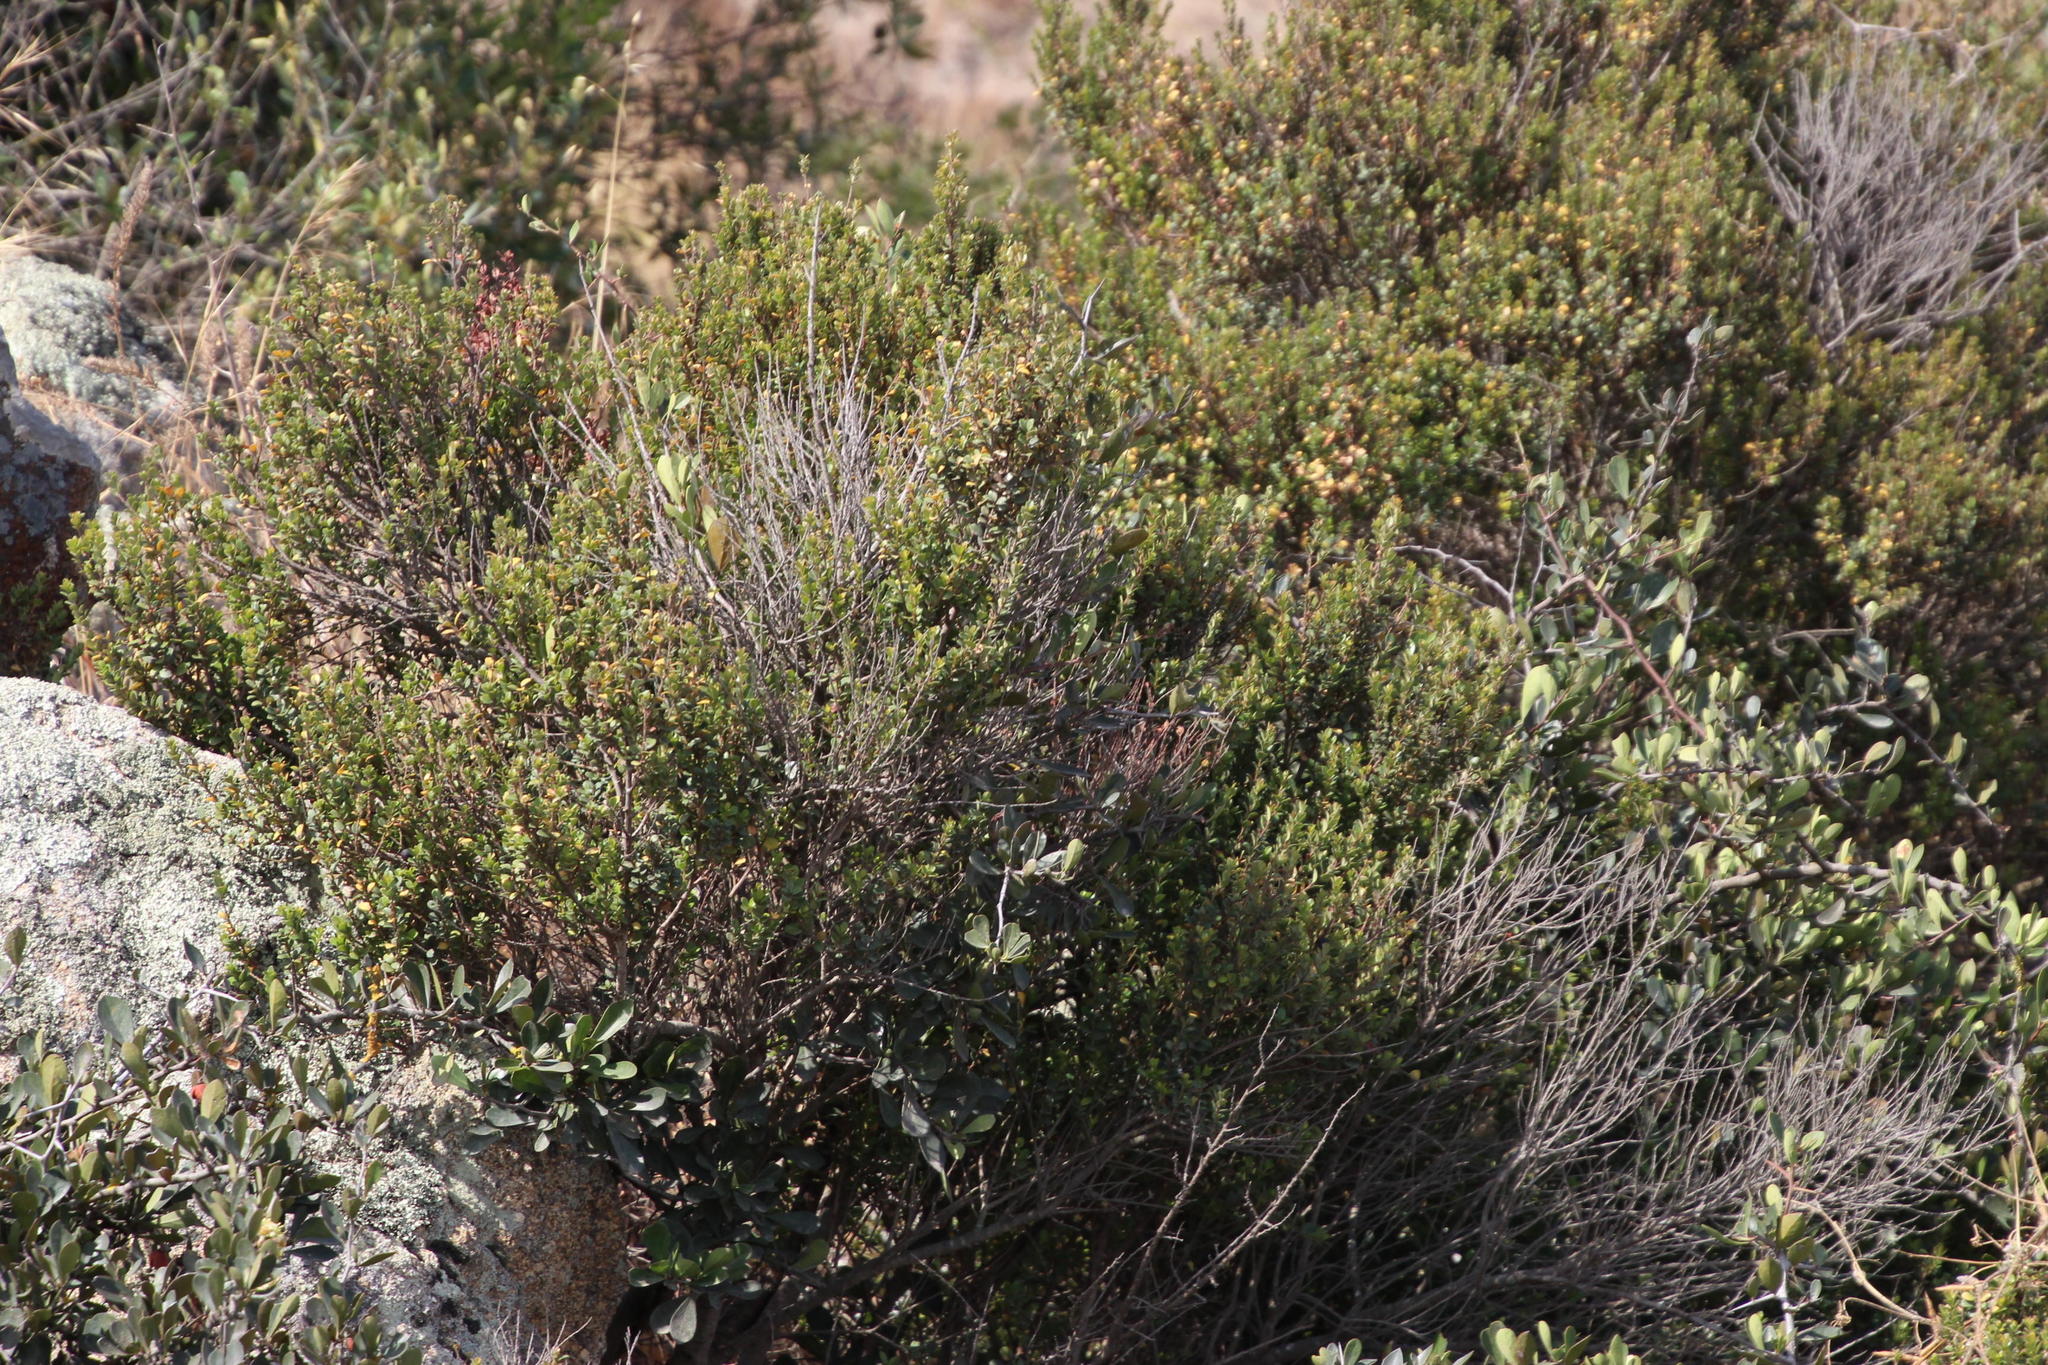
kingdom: Plantae
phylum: Tracheophyta
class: Magnoliopsida
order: Ericales
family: Primulaceae
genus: Myrsine
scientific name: Myrsine africana
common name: African-boxwood
